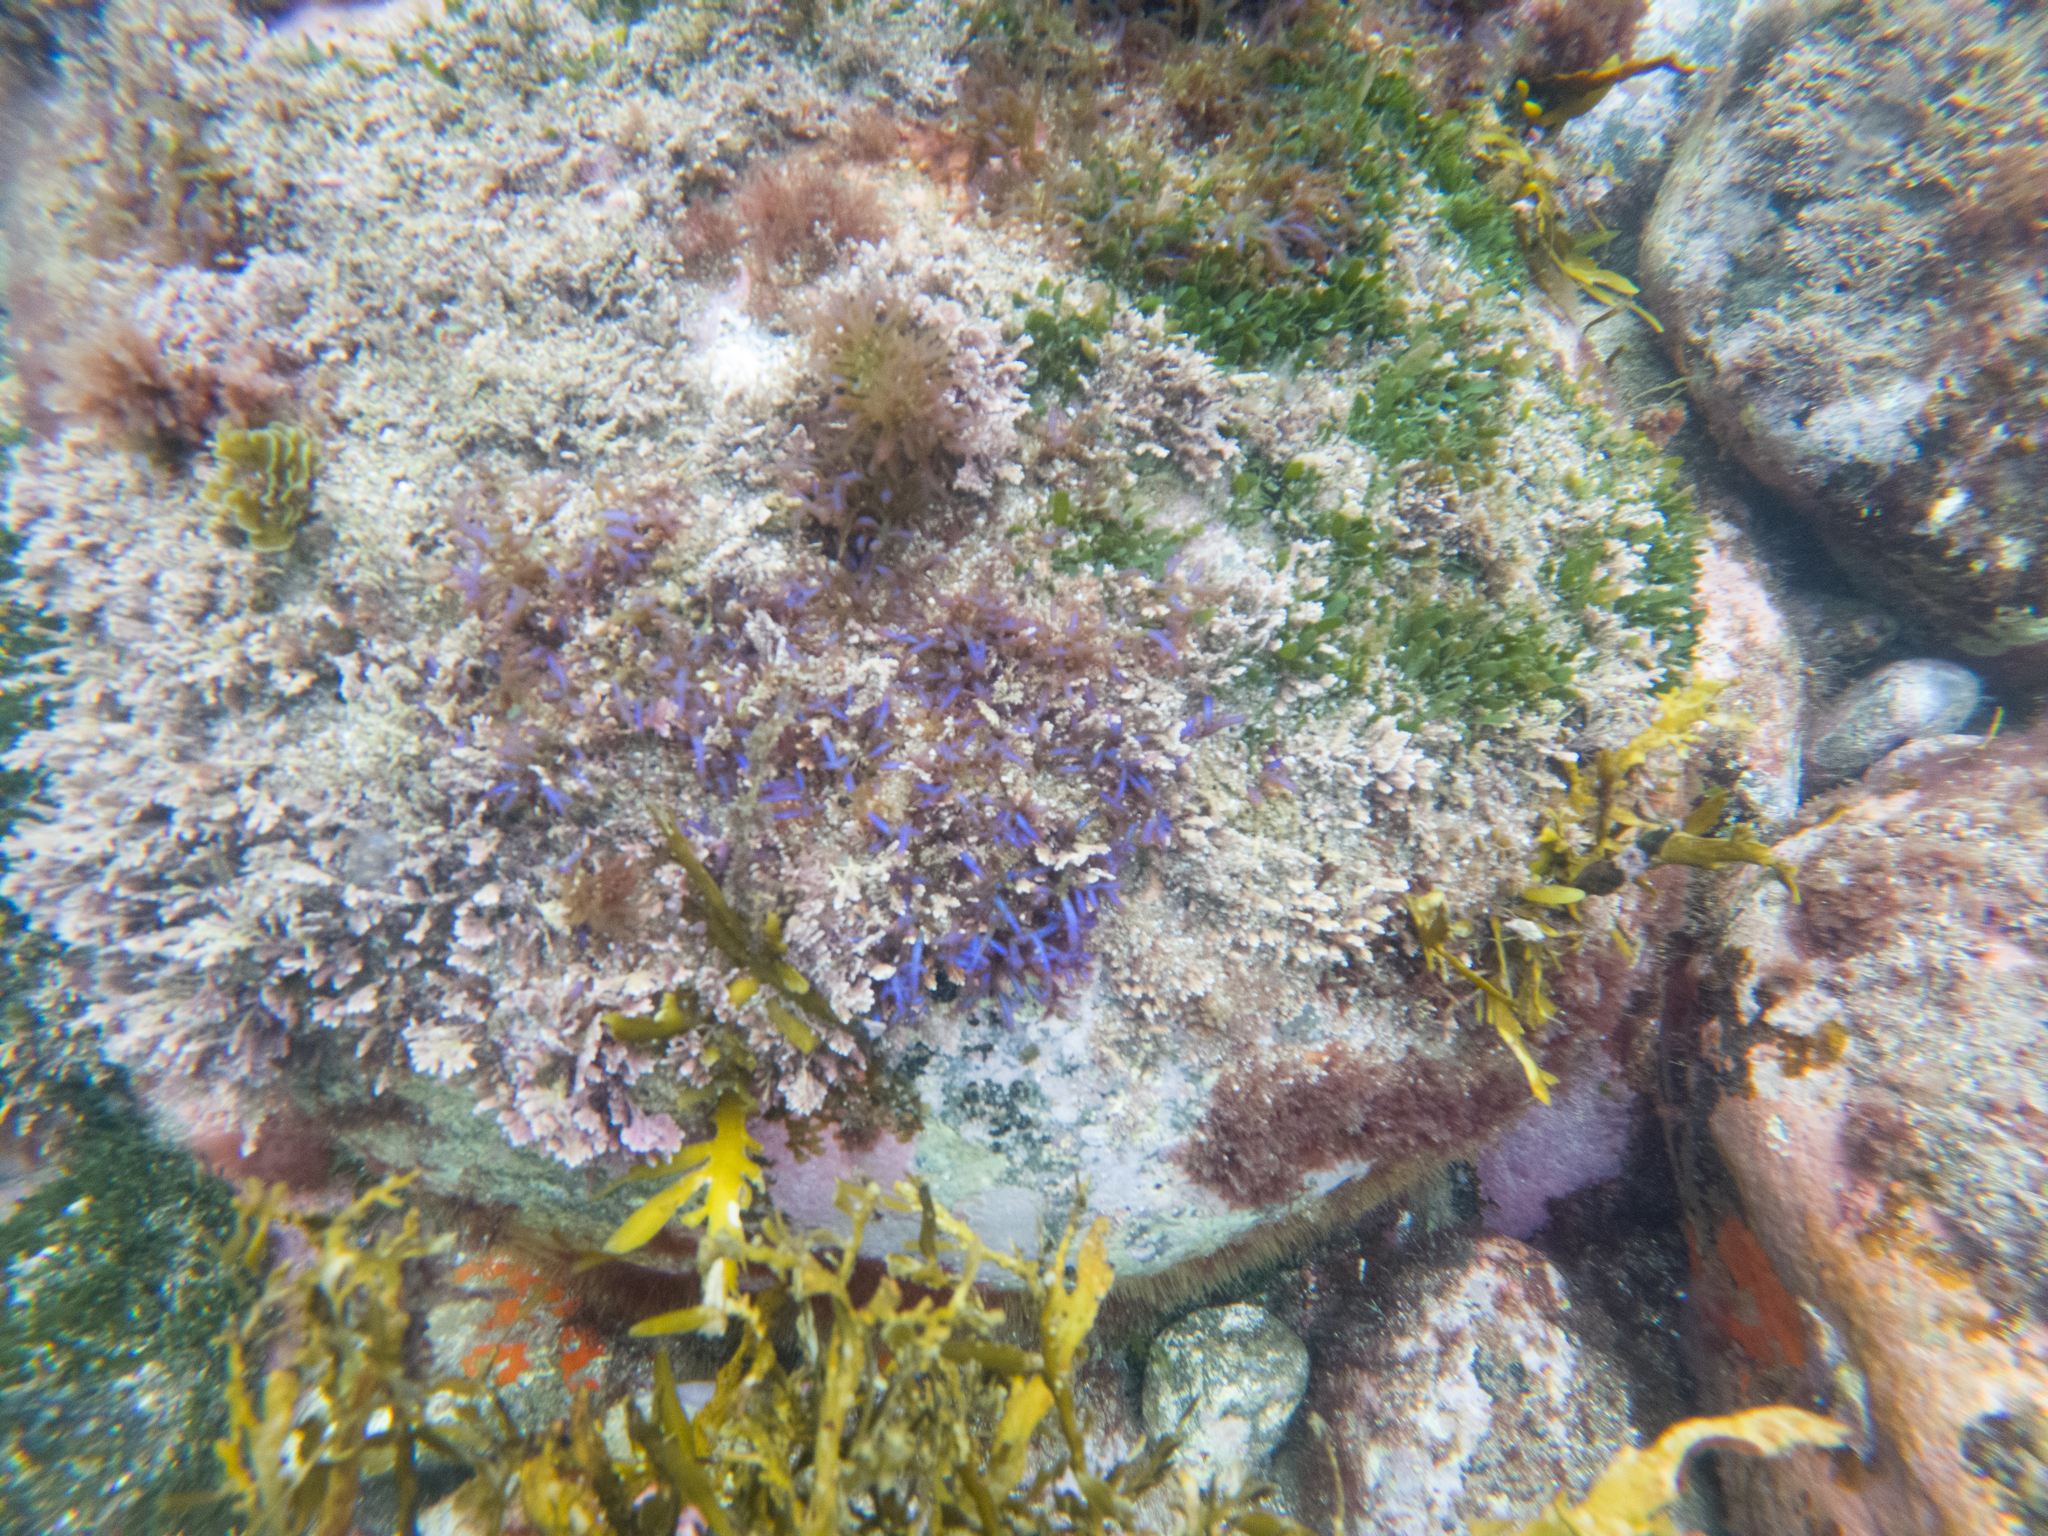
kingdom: Plantae
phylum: Rhodophyta
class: Florideophyceae
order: Rhodymeniales
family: Champiaceae
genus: Champia
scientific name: Champia laingii
